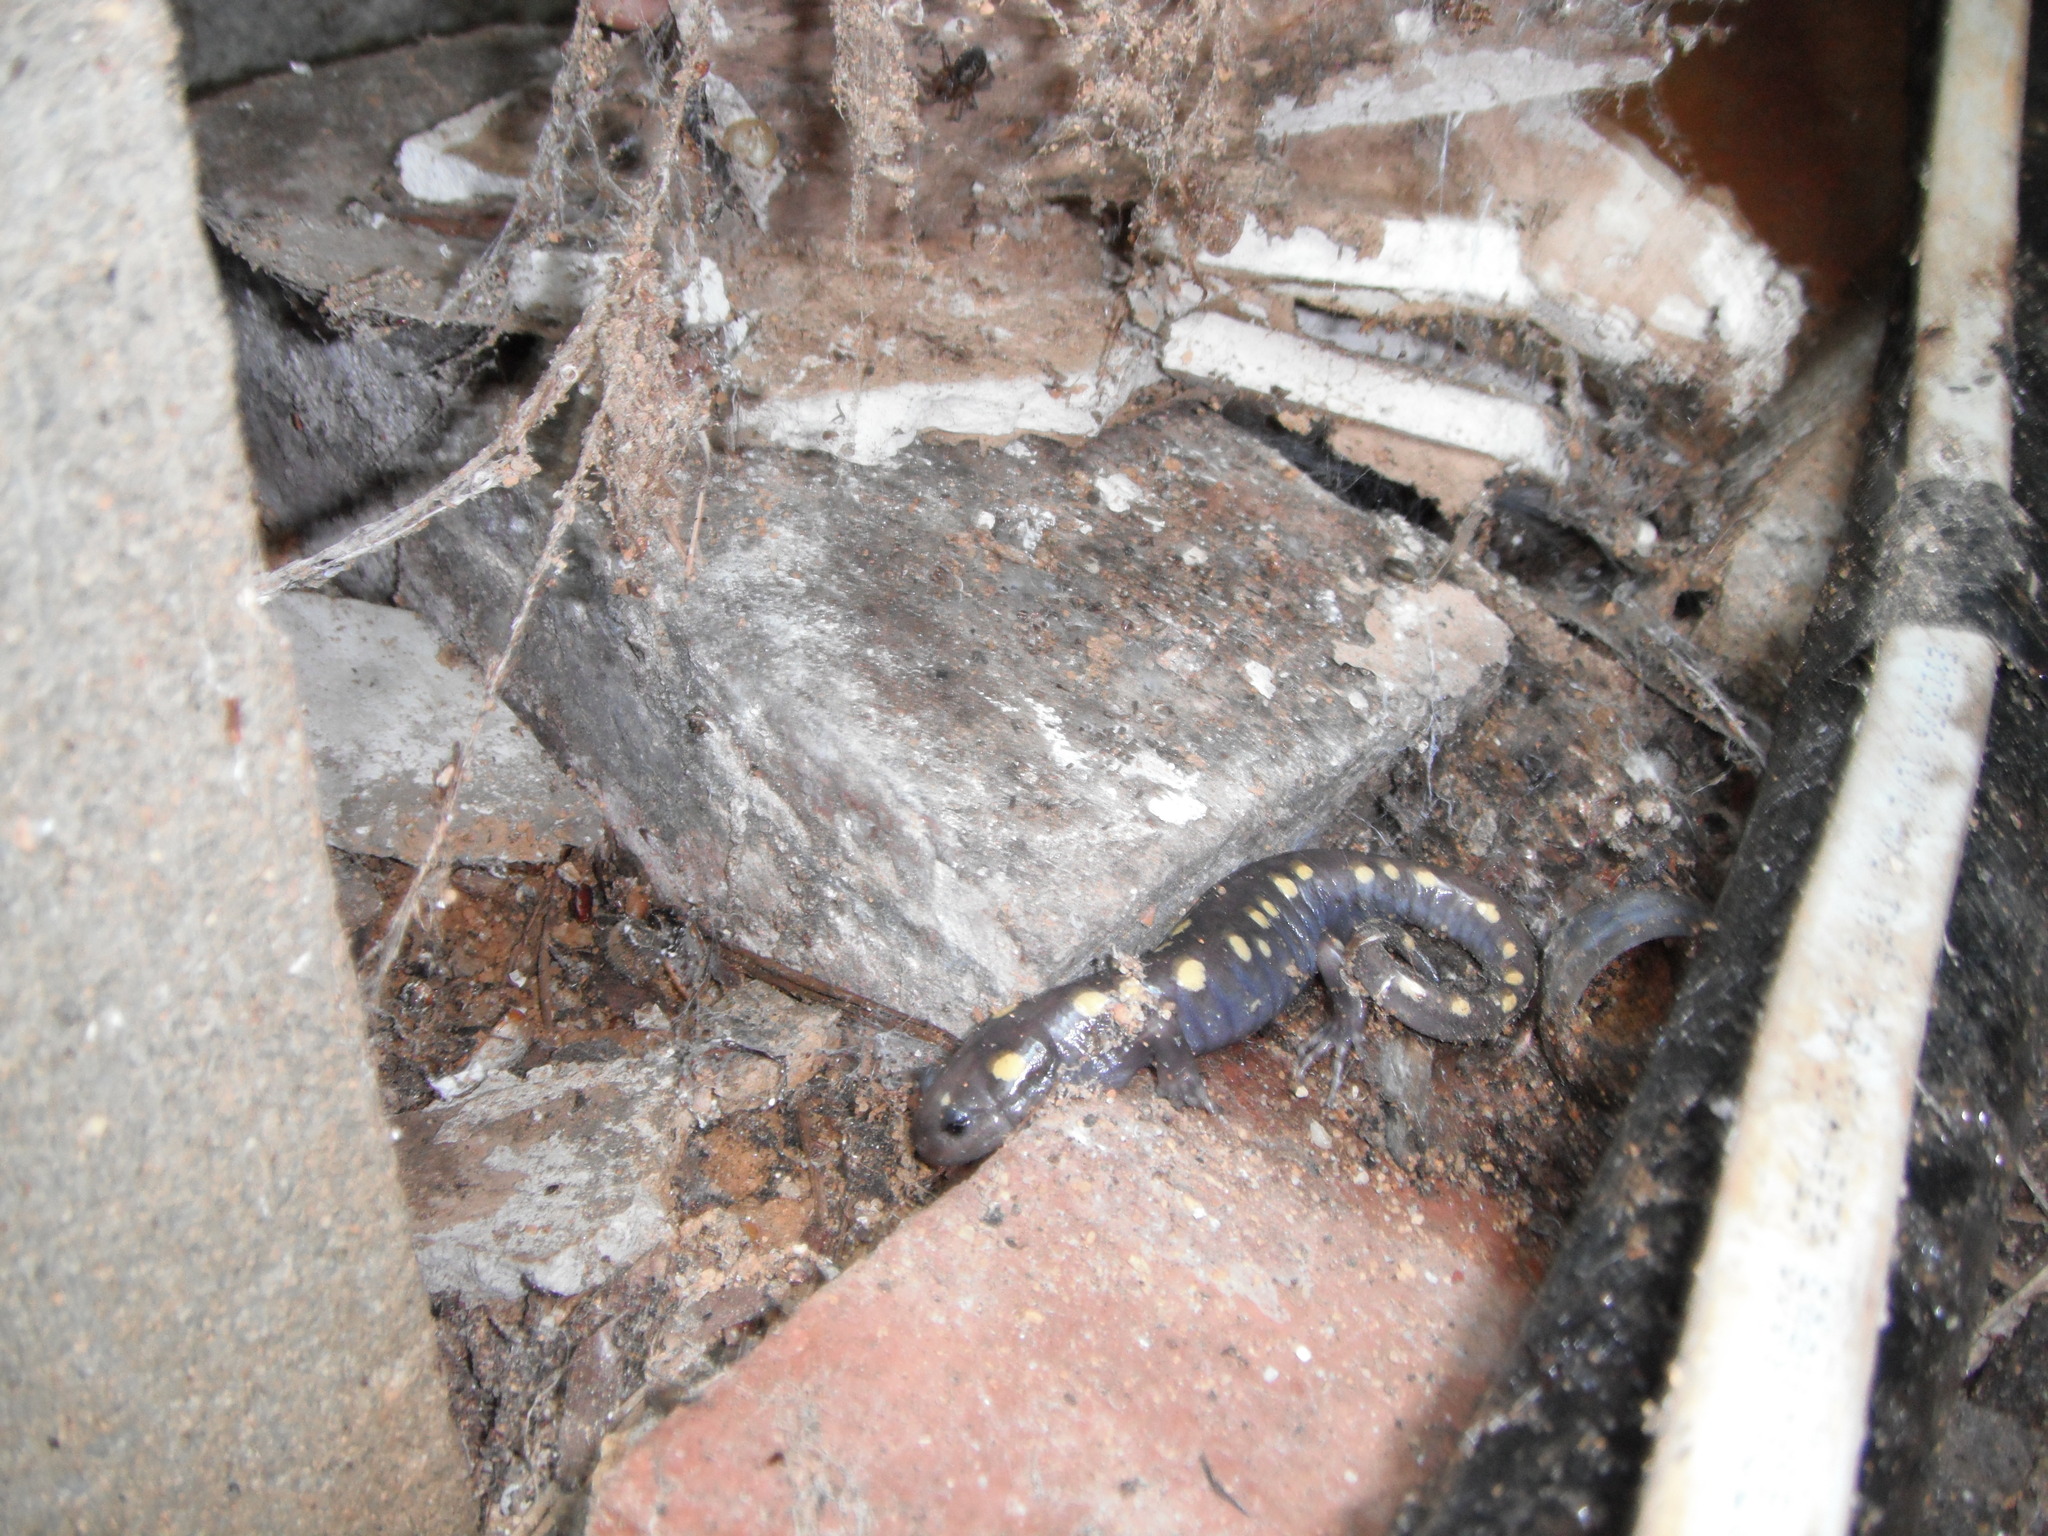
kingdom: Animalia
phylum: Chordata
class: Amphibia
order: Caudata
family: Ambystomatidae
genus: Ambystoma
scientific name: Ambystoma maculatum
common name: Spotted salamander
